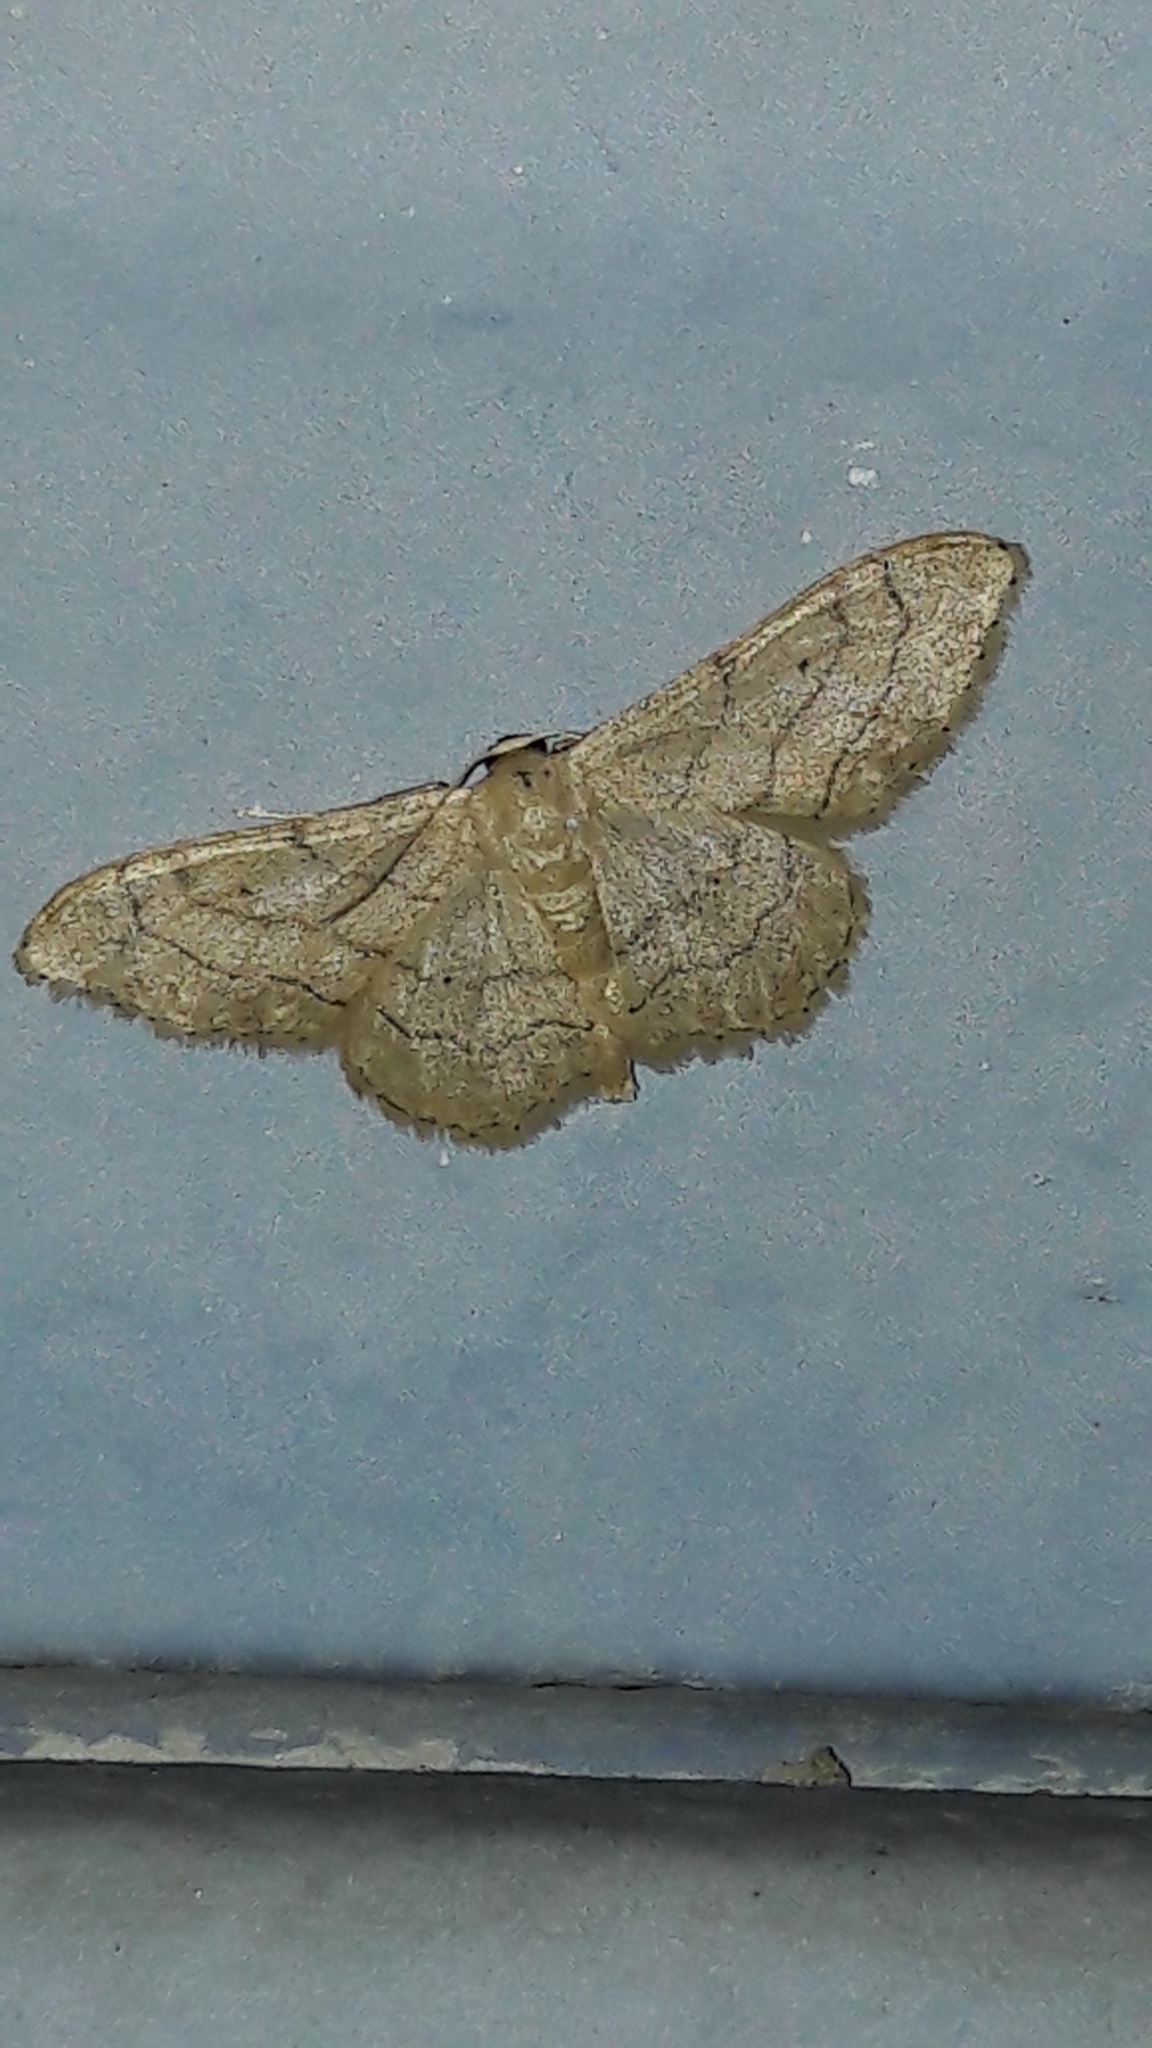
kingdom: Animalia
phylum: Arthropoda
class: Insecta
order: Lepidoptera
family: Geometridae
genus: Idaea
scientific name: Idaea aversata
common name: Riband wave
